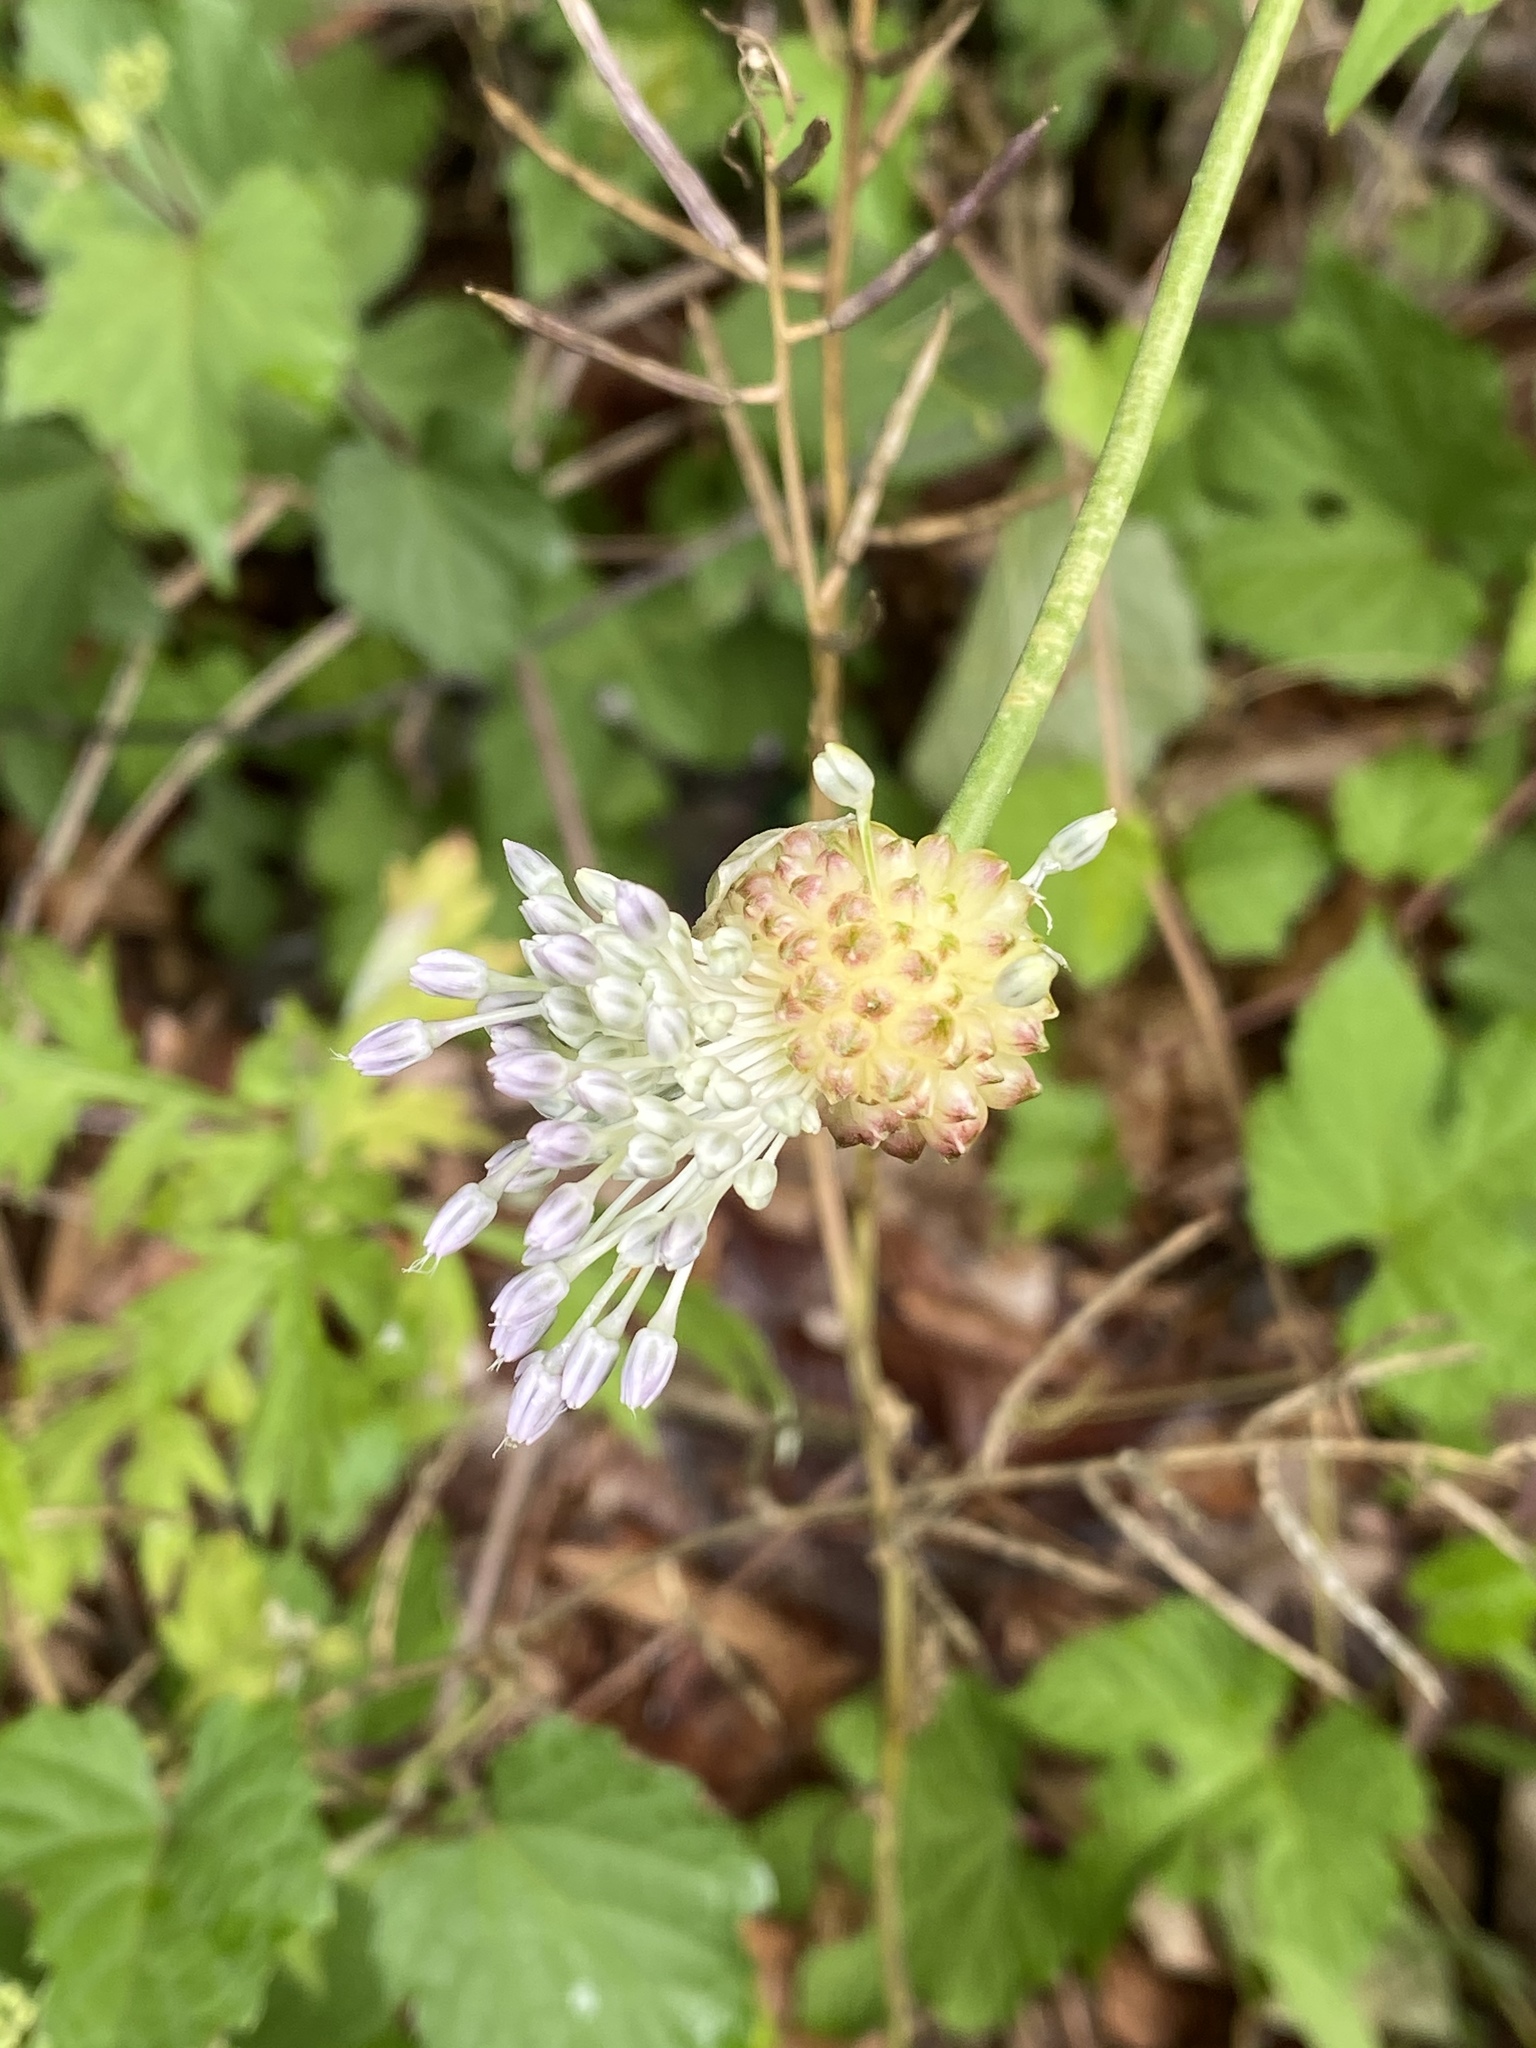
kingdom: Plantae
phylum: Tracheophyta
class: Liliopsida
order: Asparagales
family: Amaryllidaceae
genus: Allium
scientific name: Allium vineale
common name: Crow garlic
